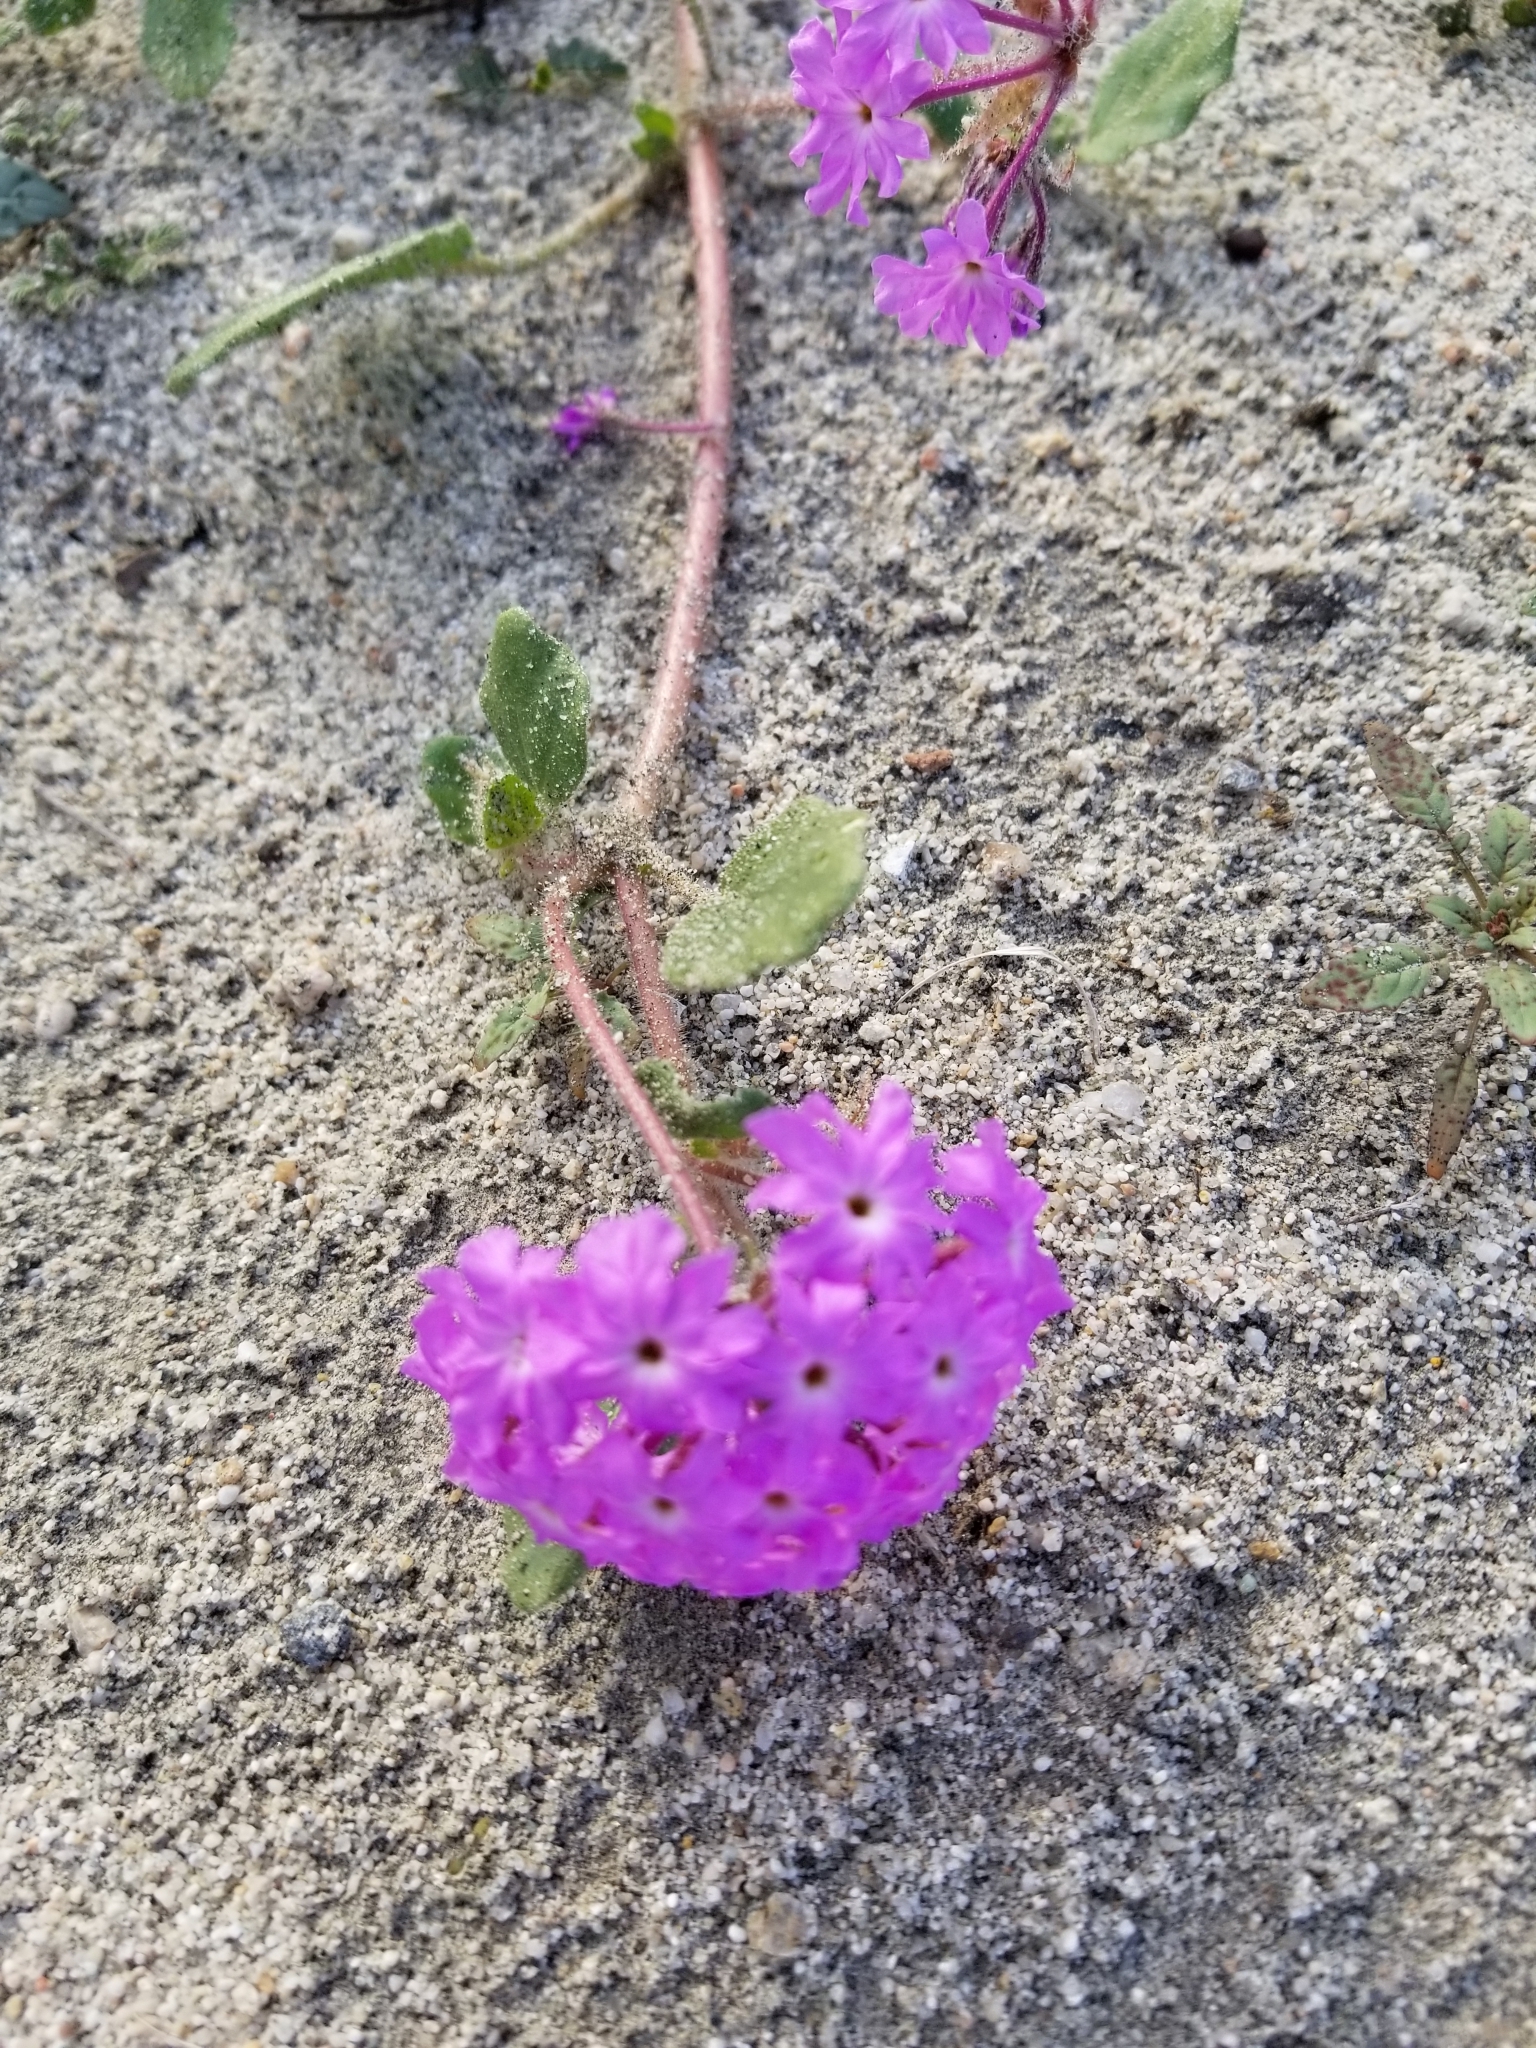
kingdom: Plantae
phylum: Tracheophyta
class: Magnoliopsida
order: Caryophyllales
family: Nyctaginaceae
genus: Abronia
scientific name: Abronia villosa
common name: Desert sand-verbena
